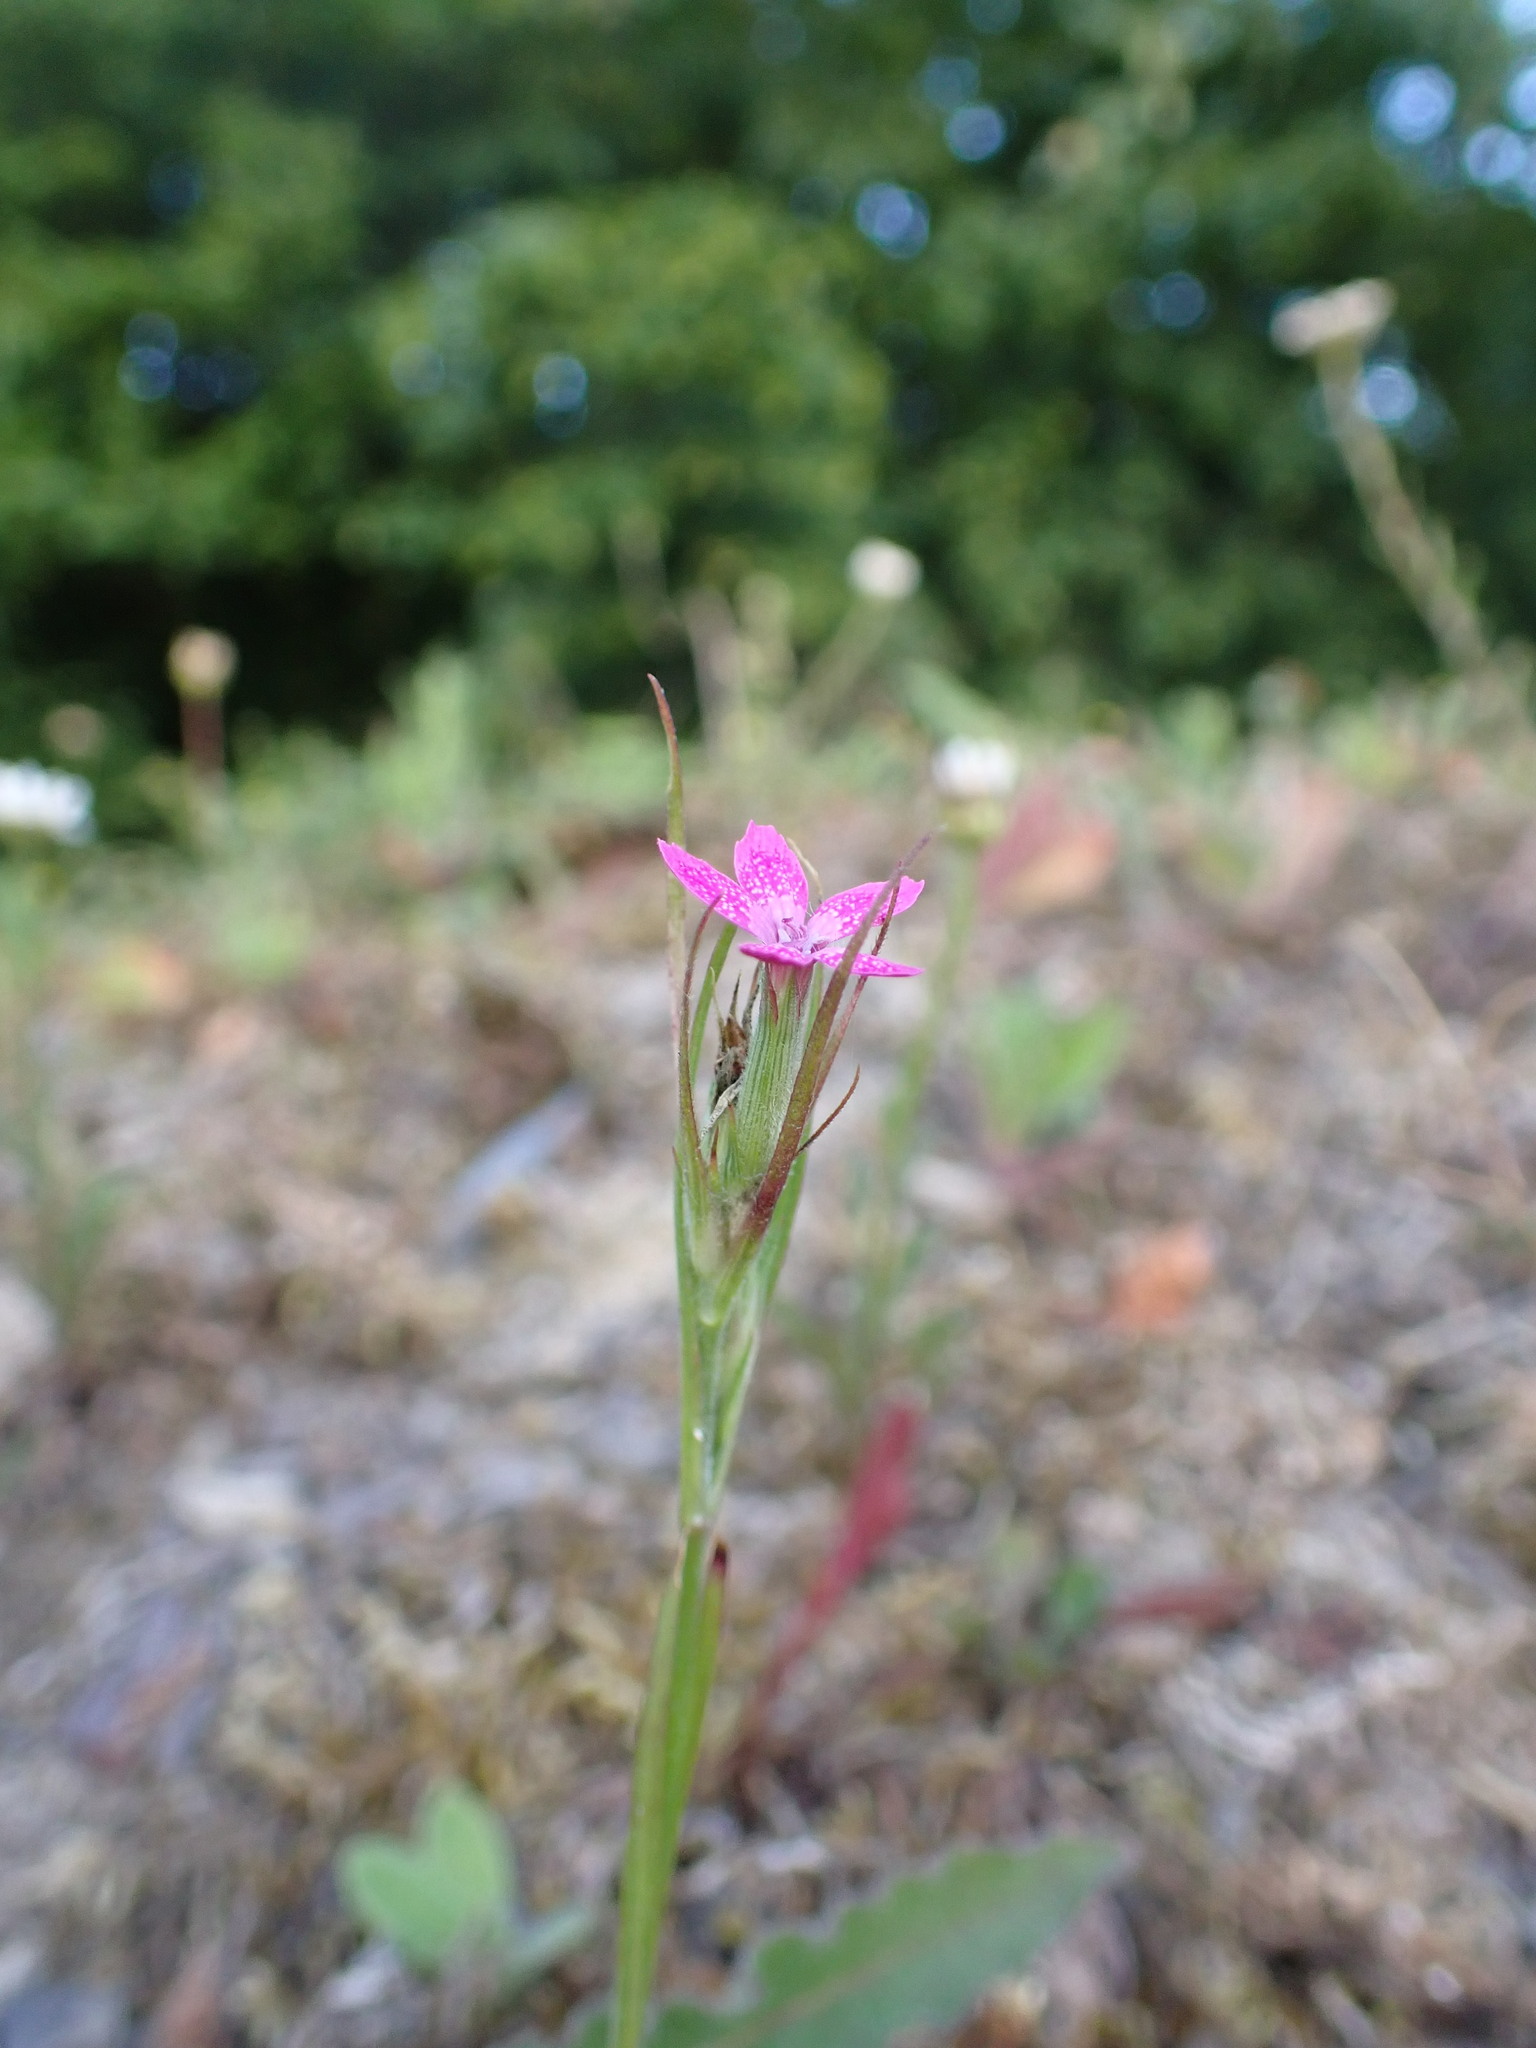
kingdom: Plantae
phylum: Tracheophyta
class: Magnoliopsida
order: Caryophyllales
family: Caryophyllaceae
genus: Dianthus
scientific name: Dianthus armeria
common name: Deptford pink
